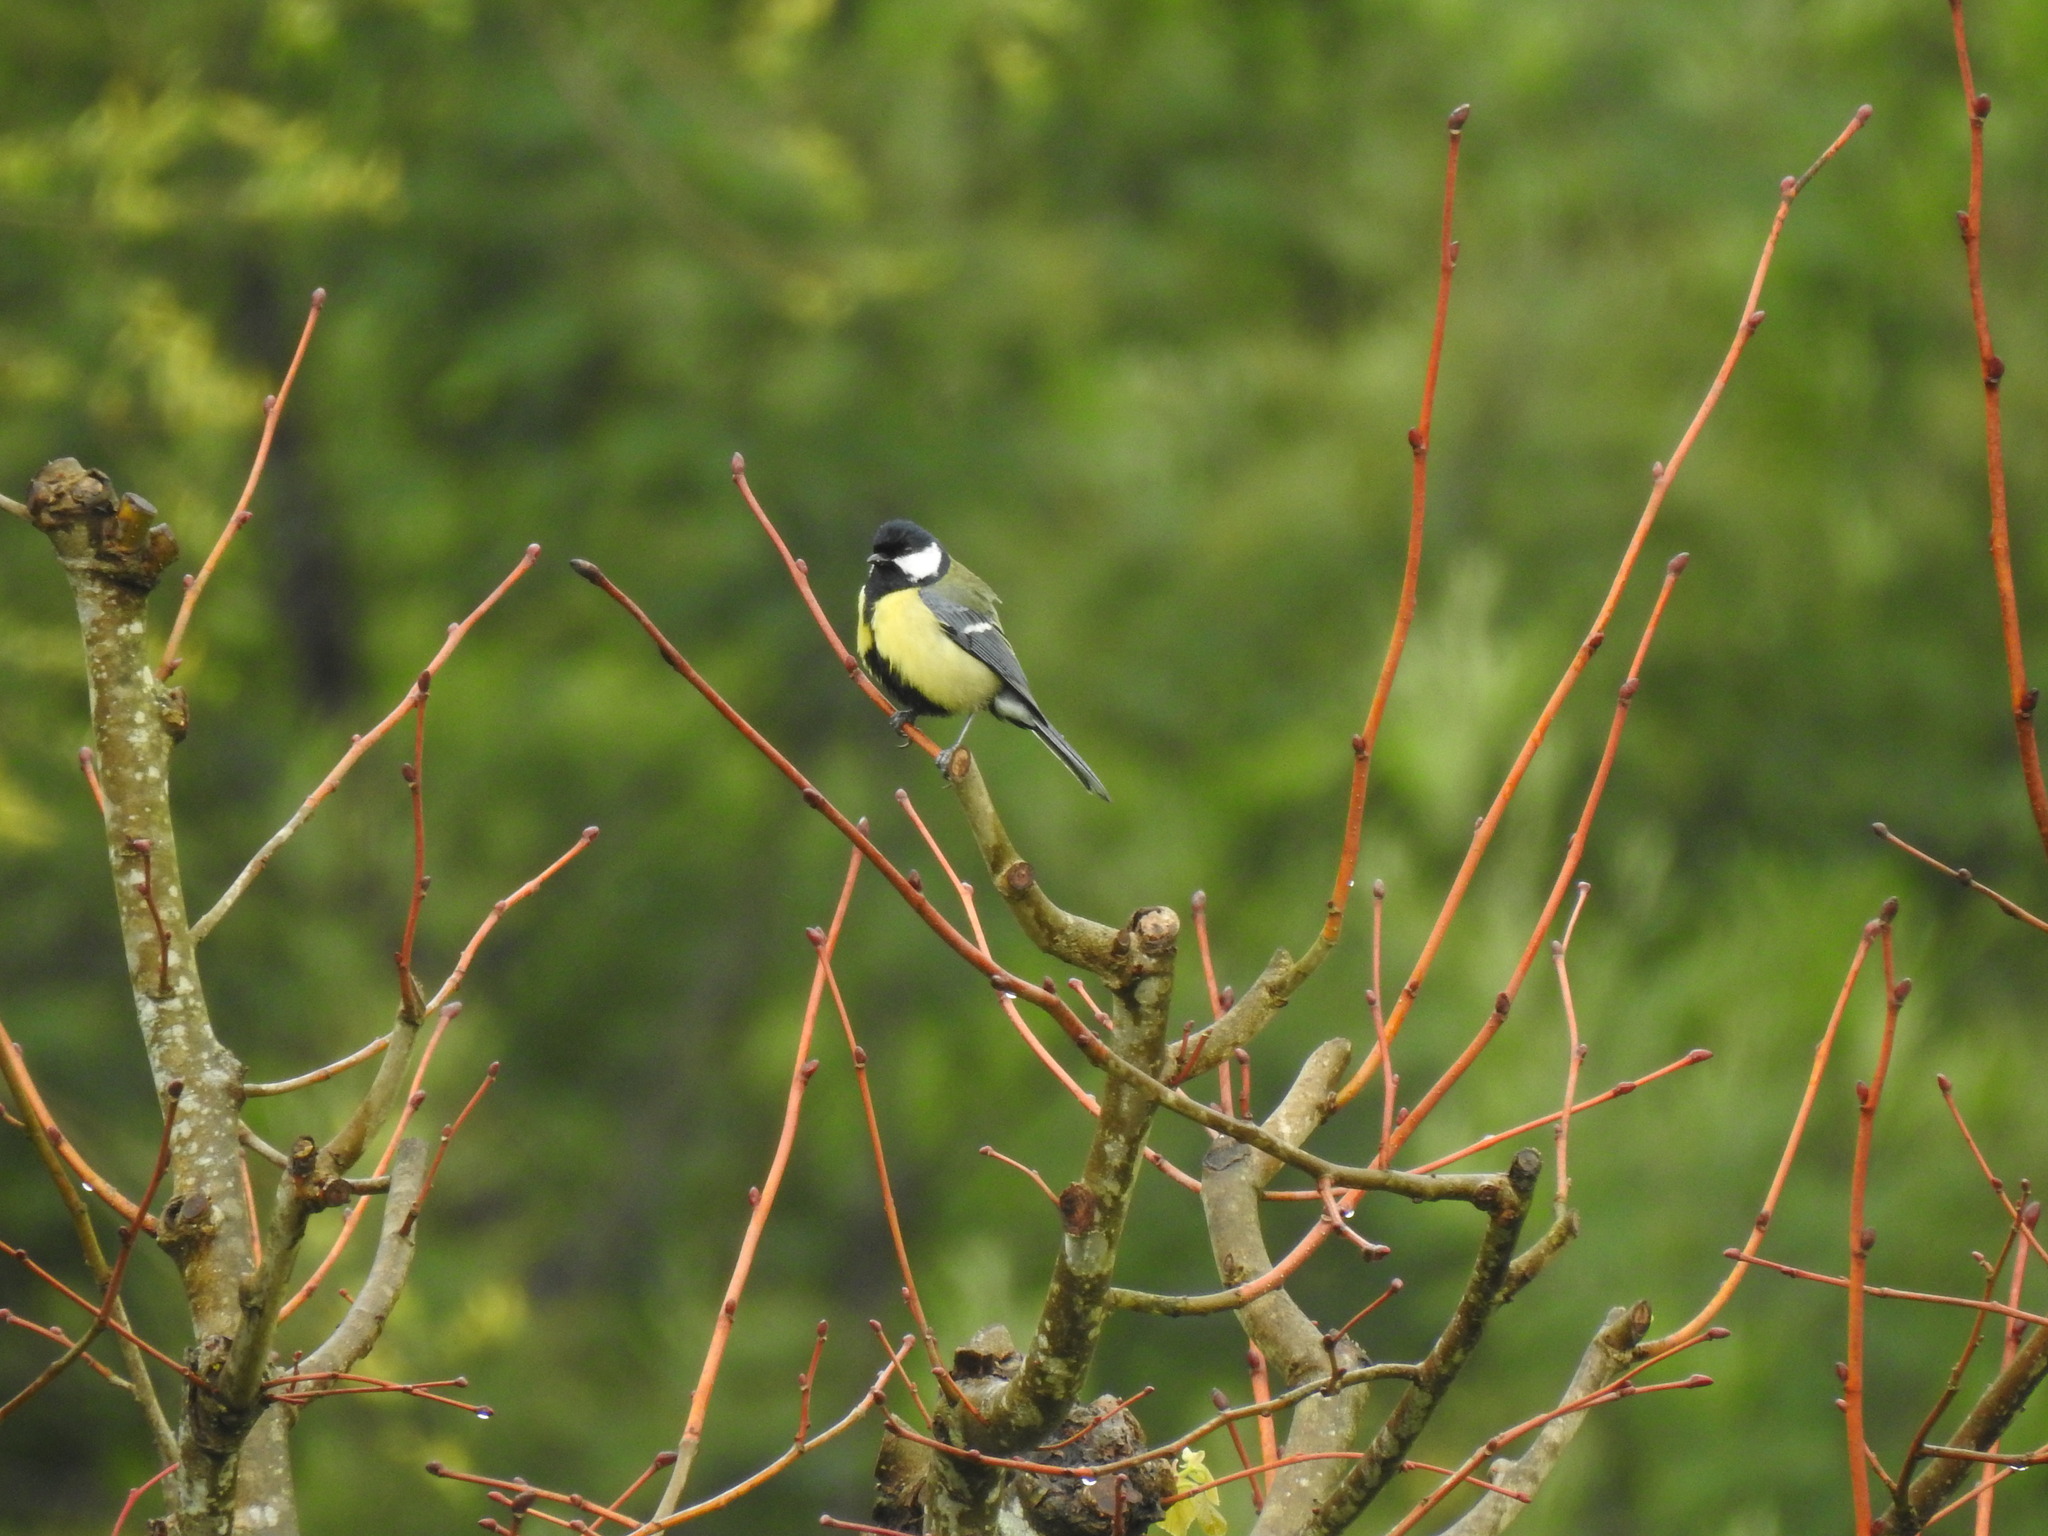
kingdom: Animalia
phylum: Chordata
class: Aves
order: Passeriformes
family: Paridae
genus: Parus
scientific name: Parus major
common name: Great tit
